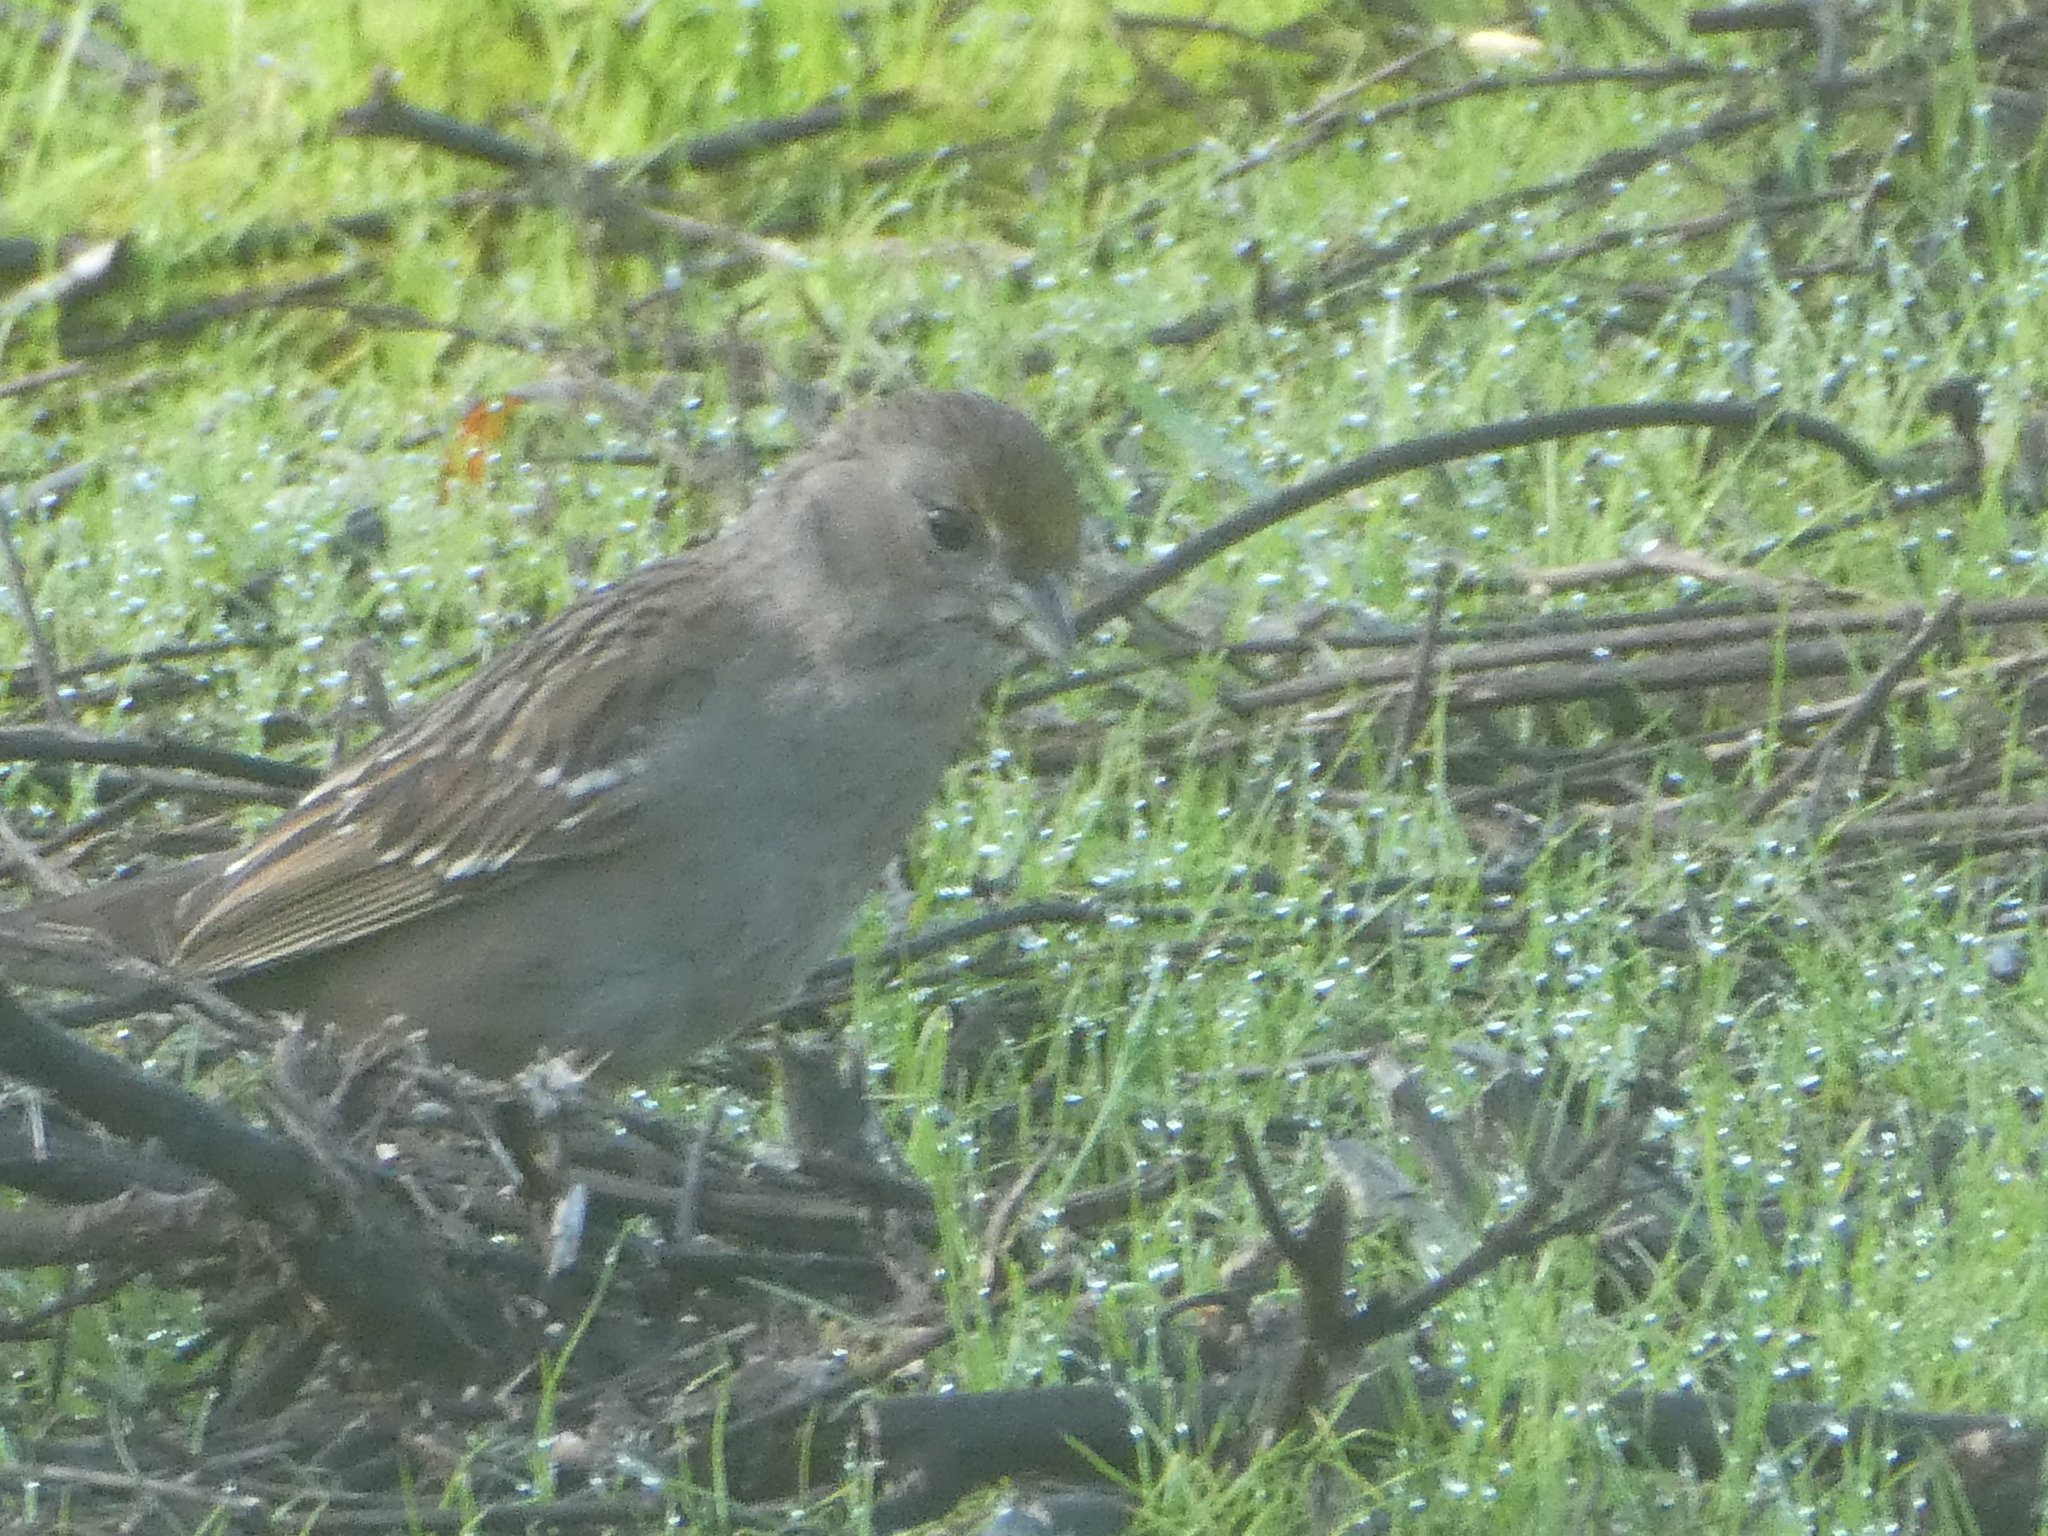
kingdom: Animalia
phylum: Chordata
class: Aves
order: Passeriformes
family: Passerellidae
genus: Zonotrichia
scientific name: Zonotrichia atricapilla
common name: Golden-crowned sparrow
